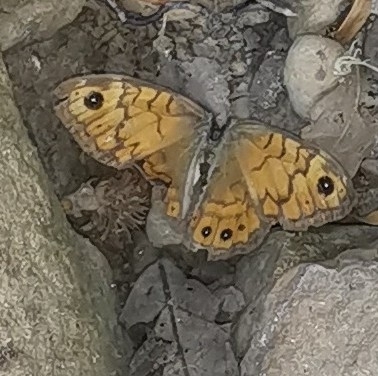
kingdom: Animalia
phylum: Arthropoda
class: Insecta
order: Lepidoptera
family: Nymphalidae
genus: Pararge
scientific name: Pararge Lasiommata megera
